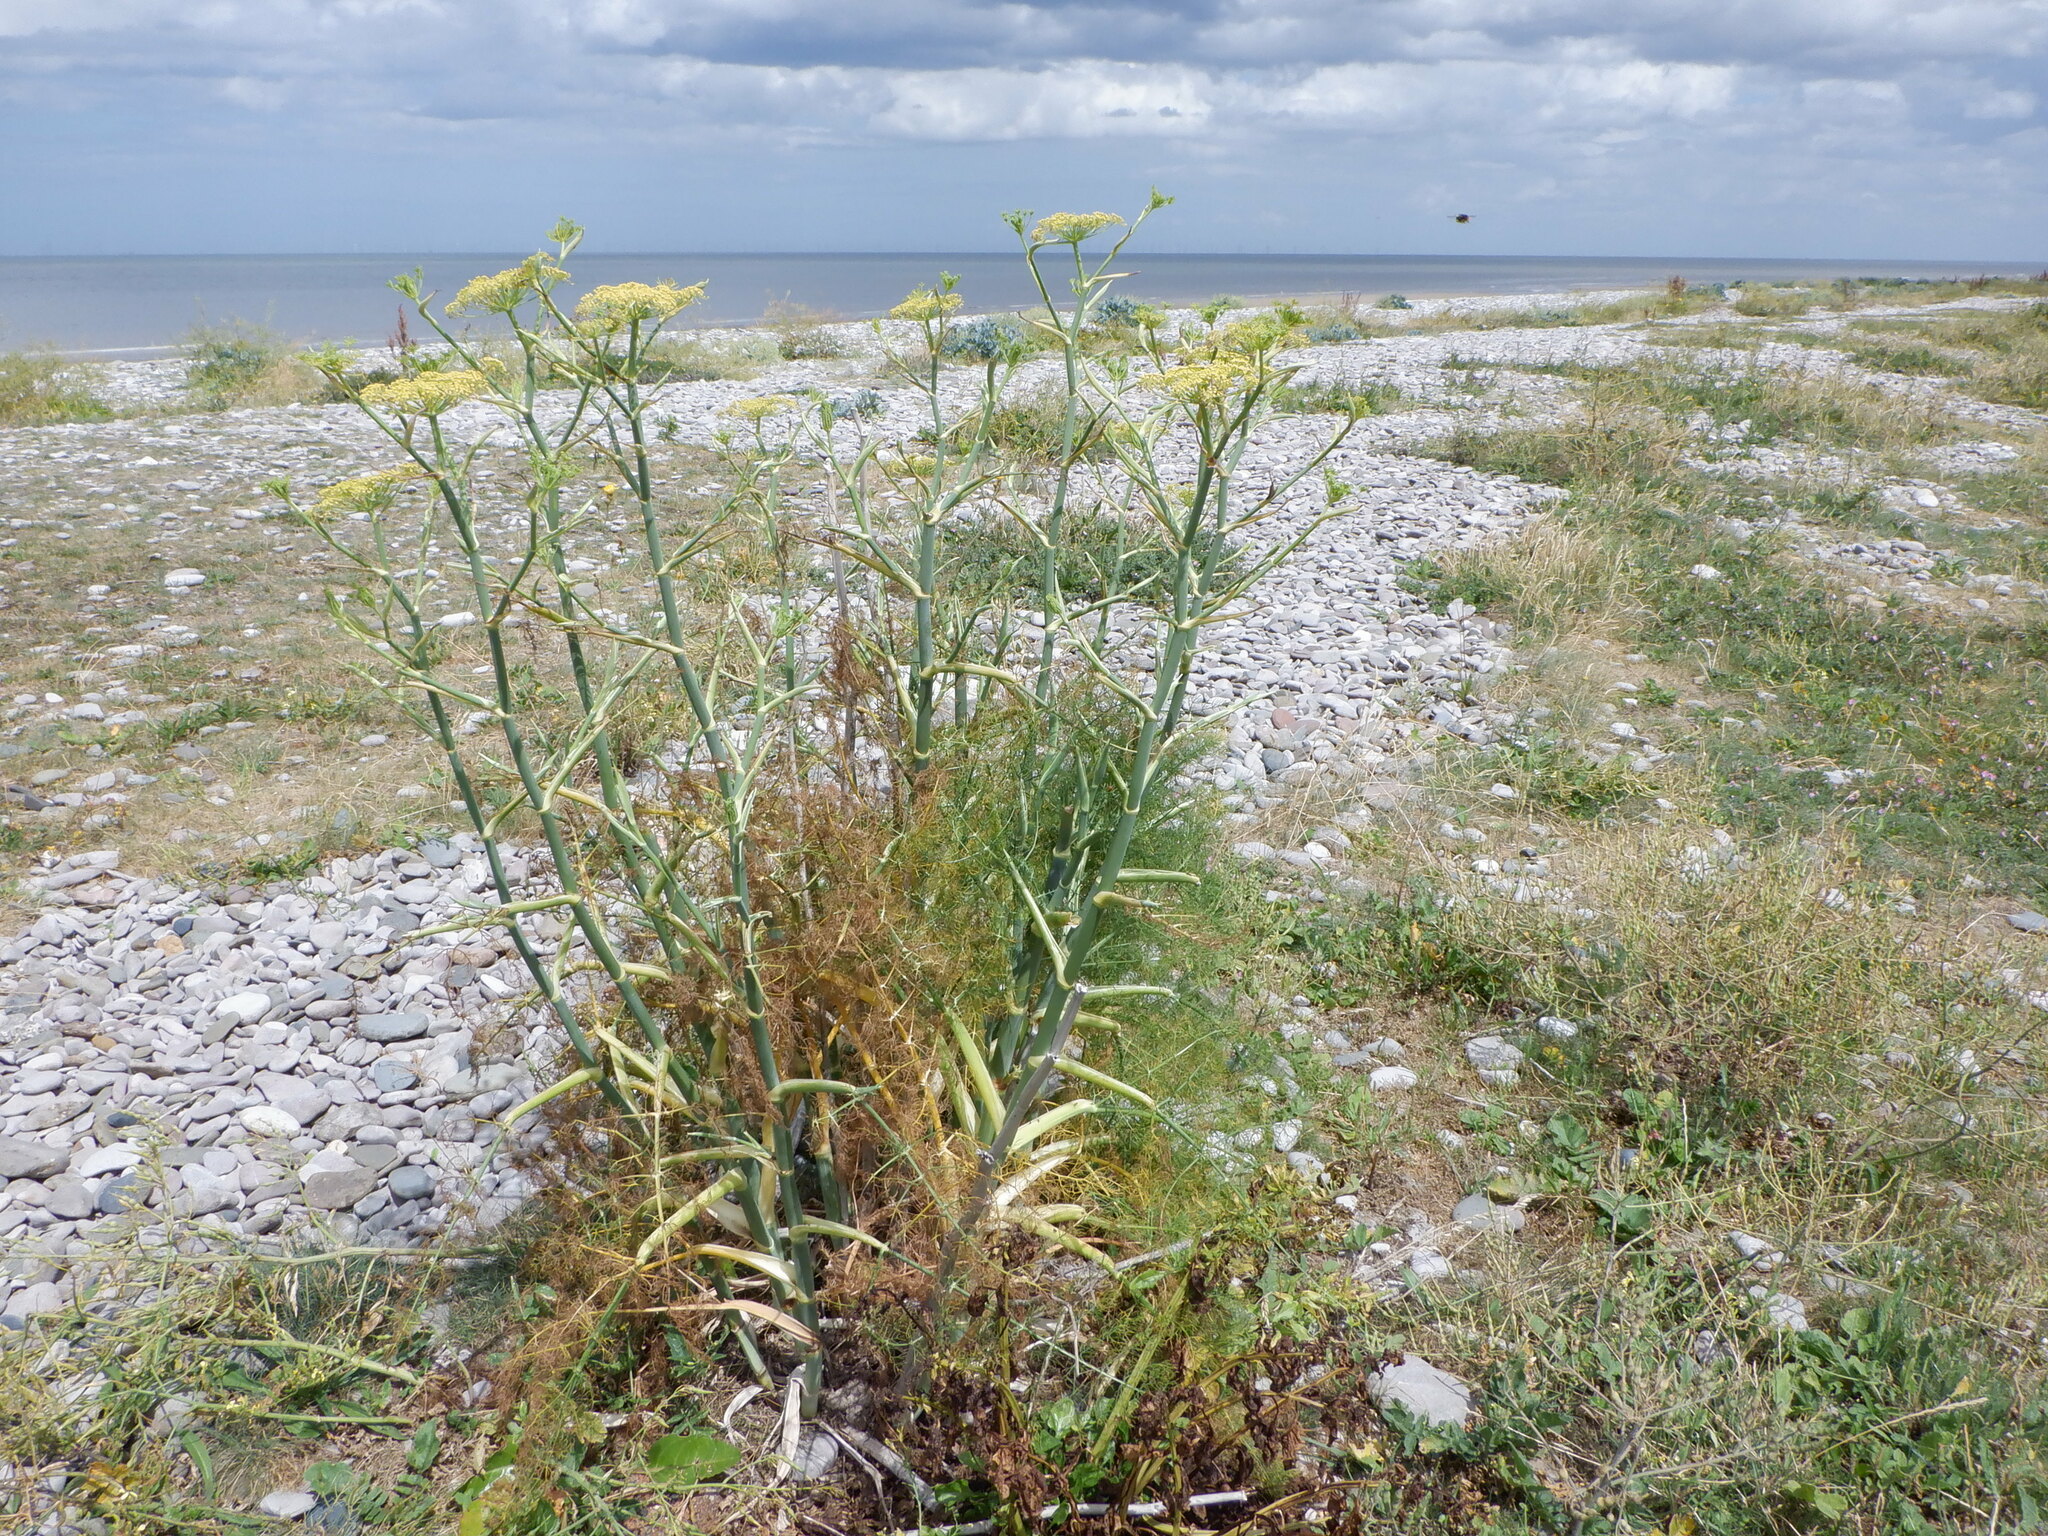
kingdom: Plantae
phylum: Tracheophyta
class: Magnoliopsida
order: Apiales
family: Apiaceae
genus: Foeniculum
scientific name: Foeniculum vulgare
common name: Fennel
